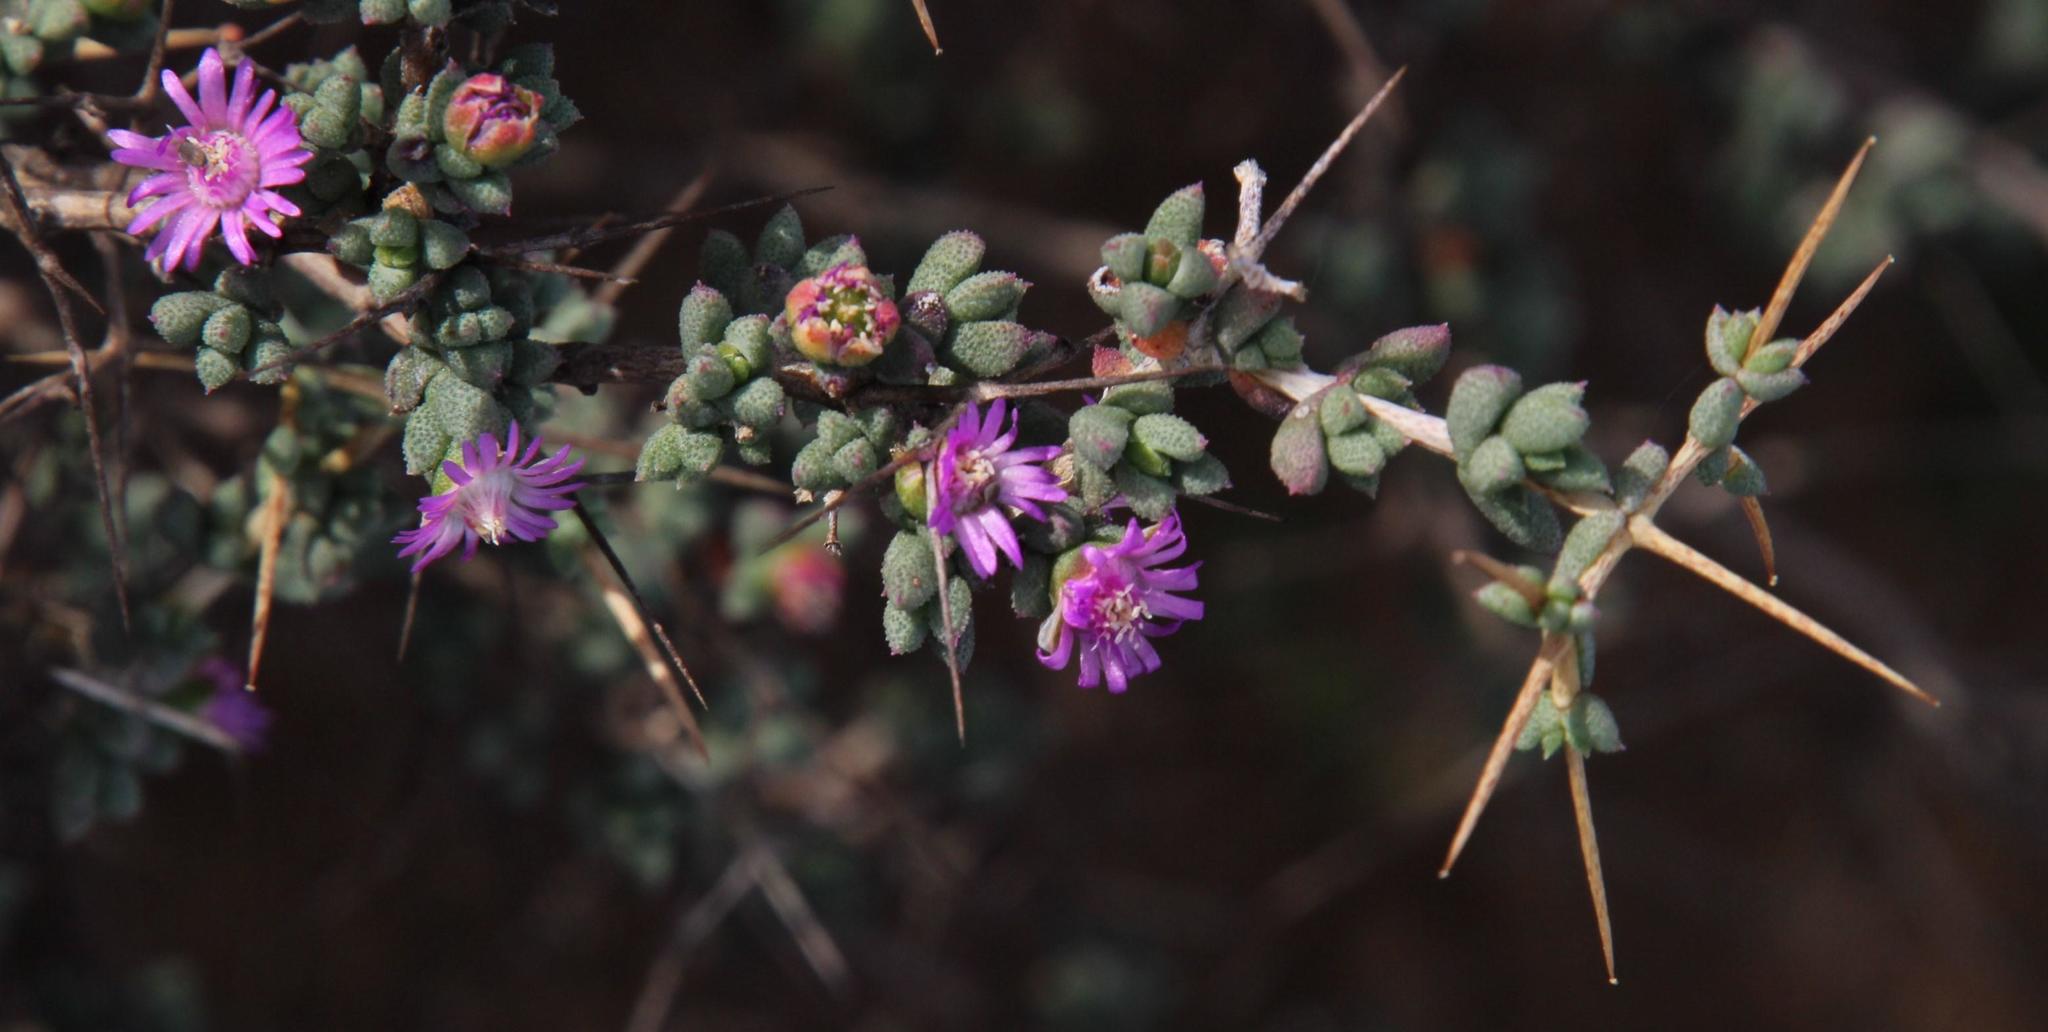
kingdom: Plantae
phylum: Tracheophyta
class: Magnoliopsida
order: Caryophyllales
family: Aizoaceae
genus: Ruschia
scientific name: Ruschia cradockensis
